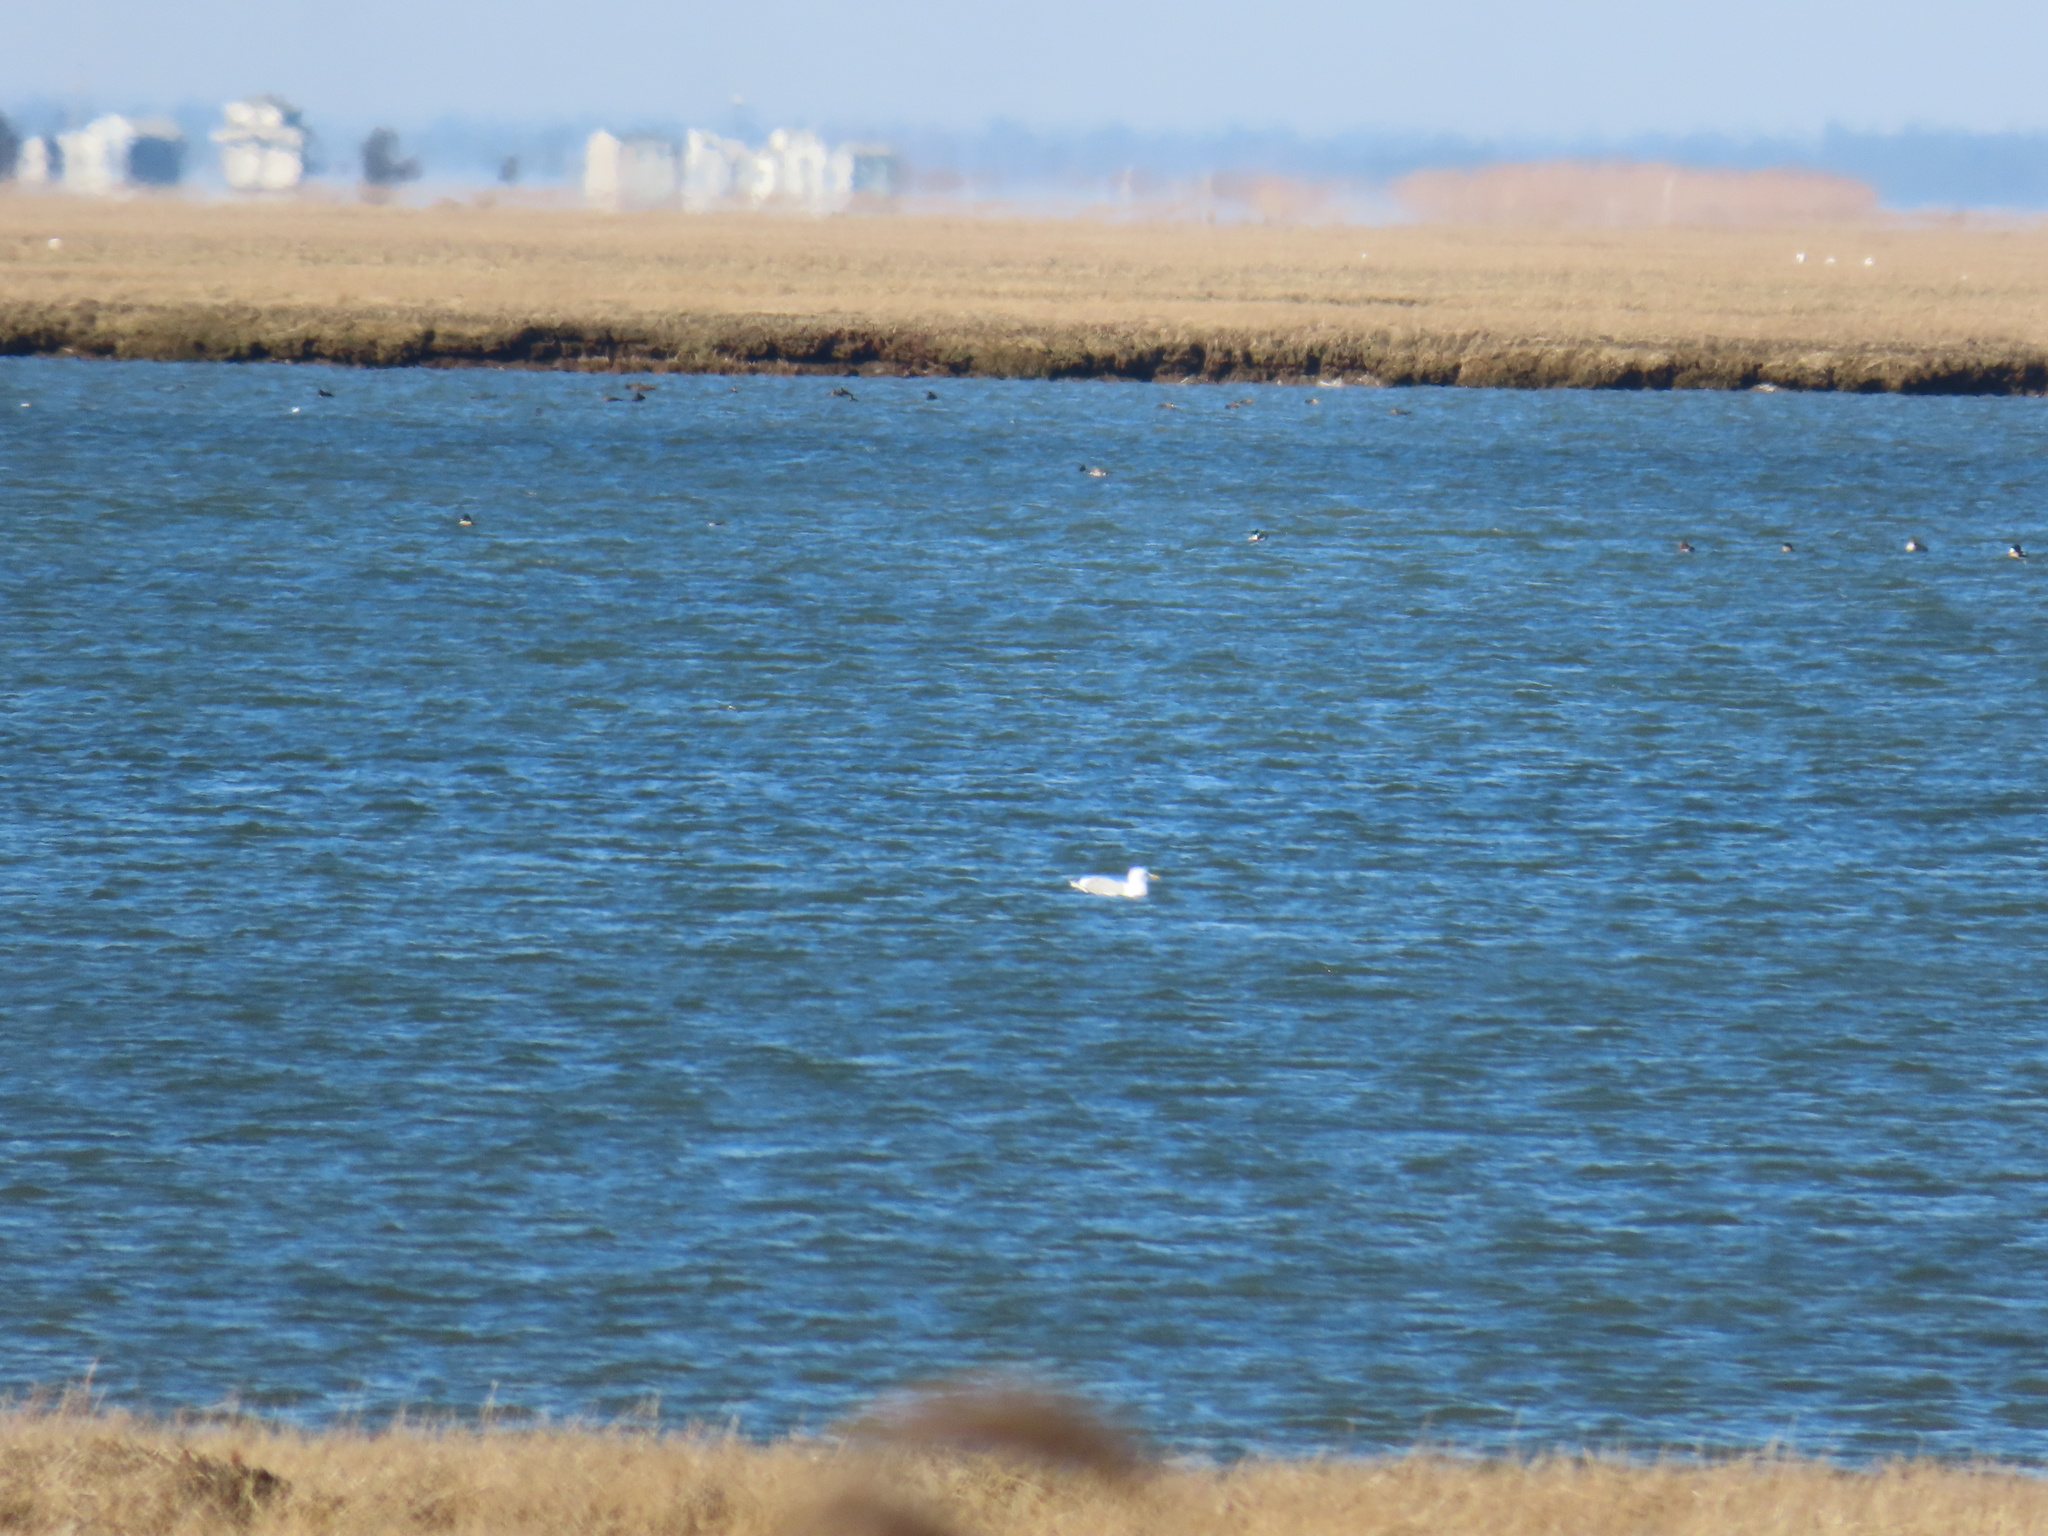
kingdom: Animalia
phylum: Chordata
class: Aves
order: Charadriiformes
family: Laridae
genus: Larus
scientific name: Larus hyperboreus
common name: Glaucous gull
